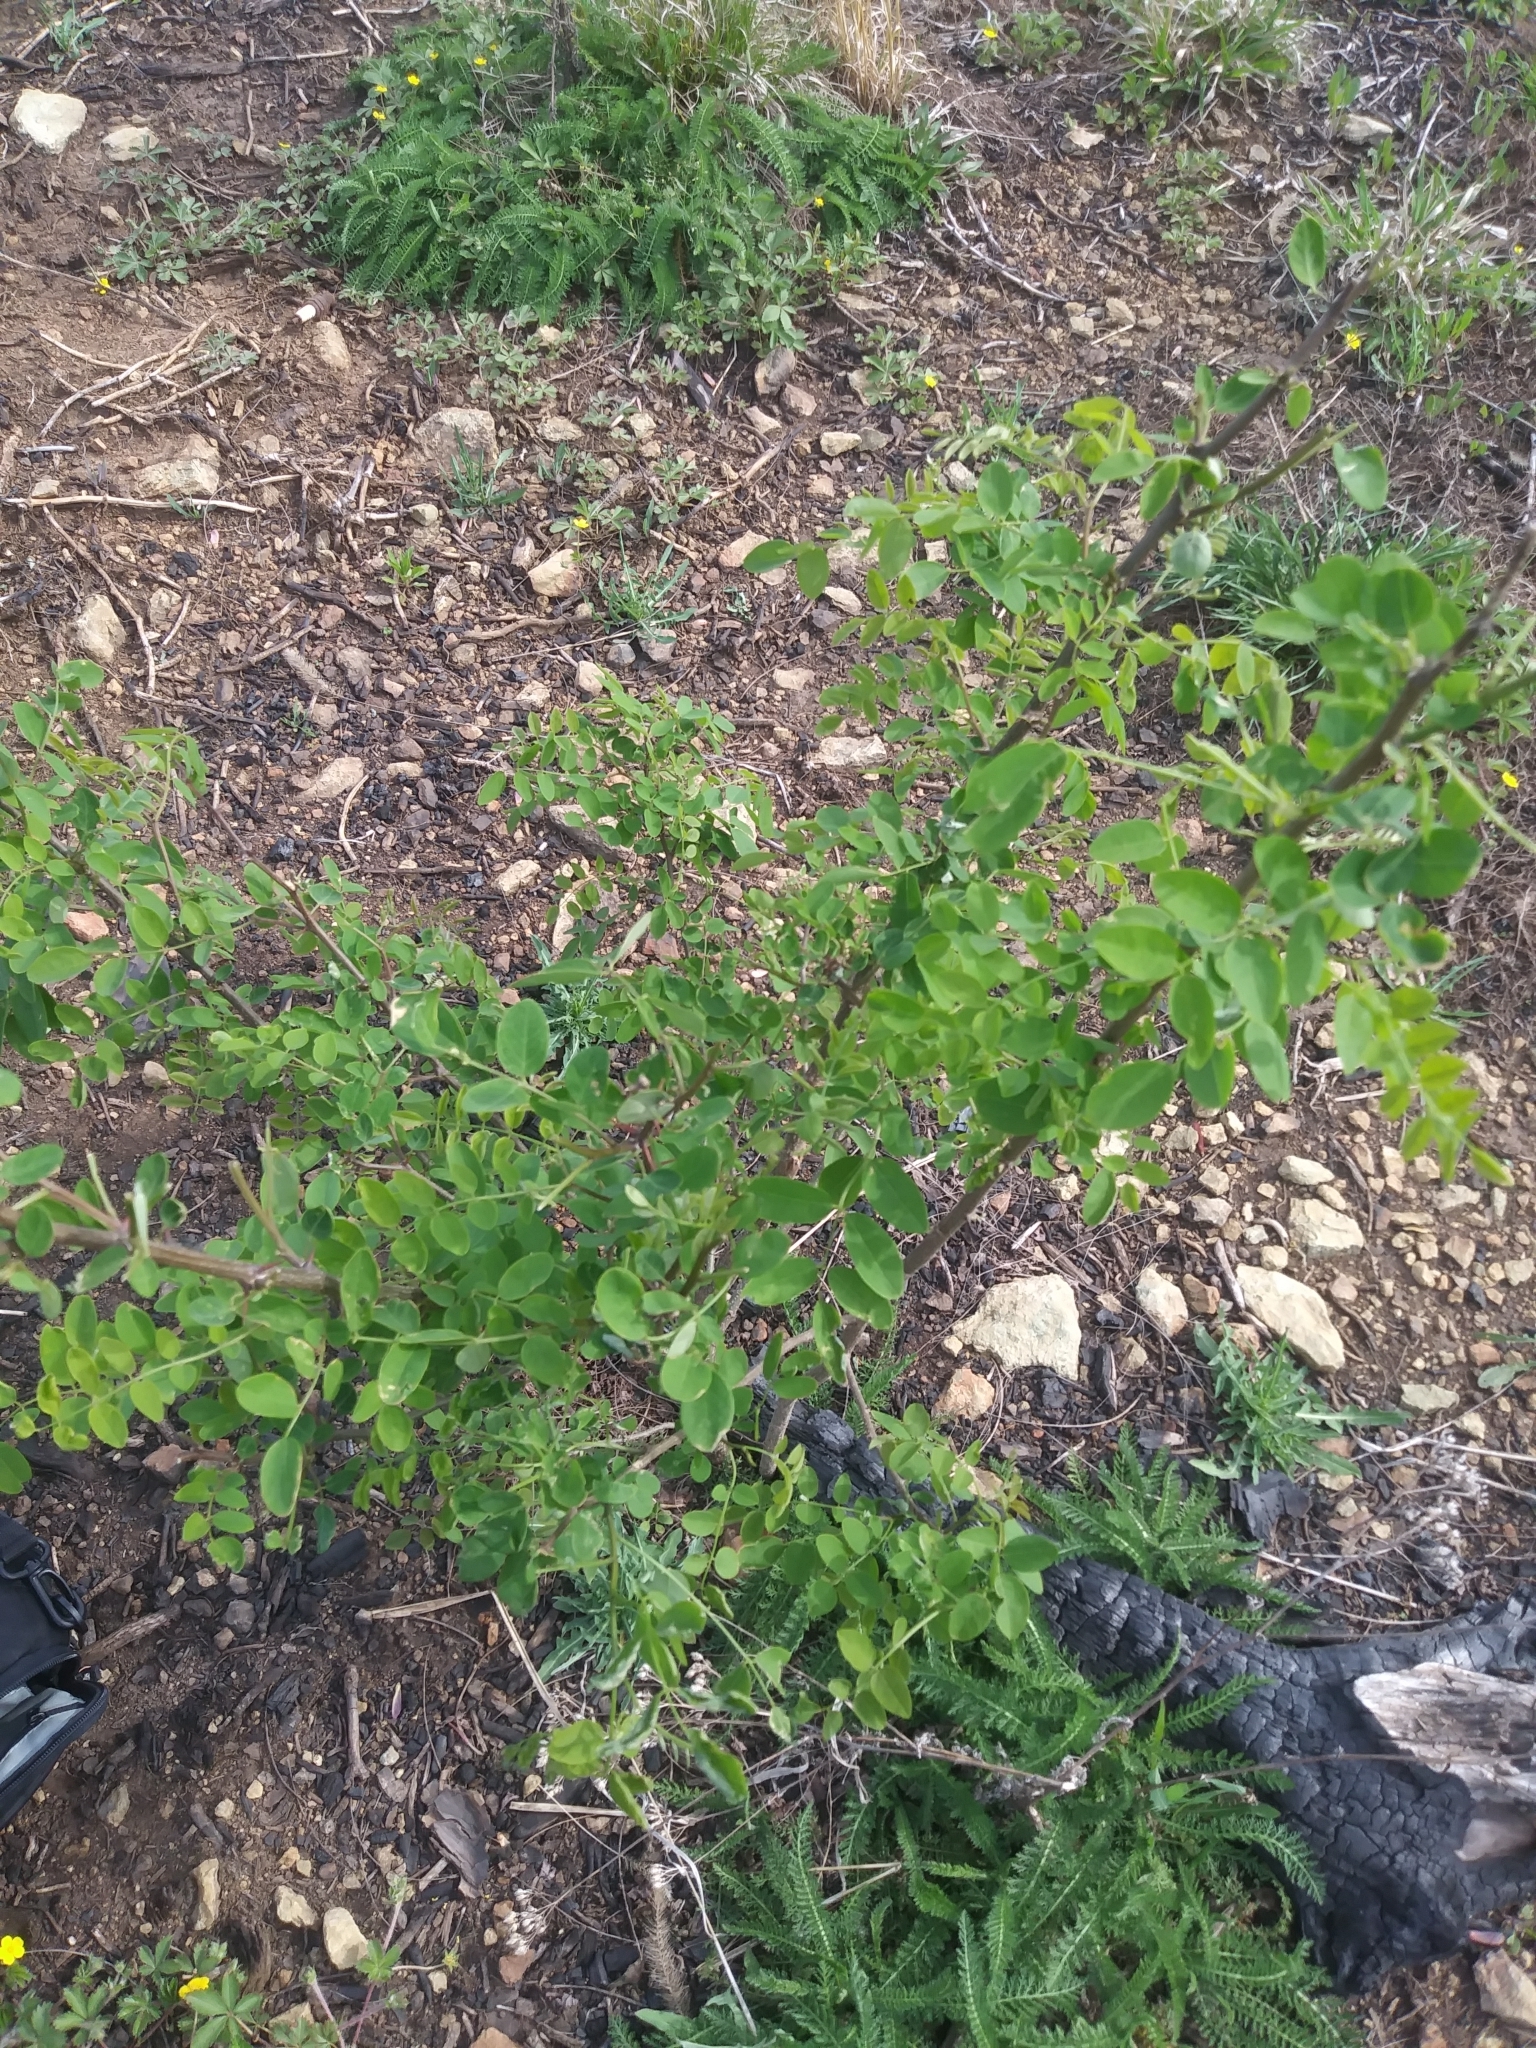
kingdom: Plantae
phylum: Tracheophyta
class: Magnoliopsida
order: Fabales
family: Fabaceae
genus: Robinia
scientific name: Robinia pseudoacacia
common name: Black locust
